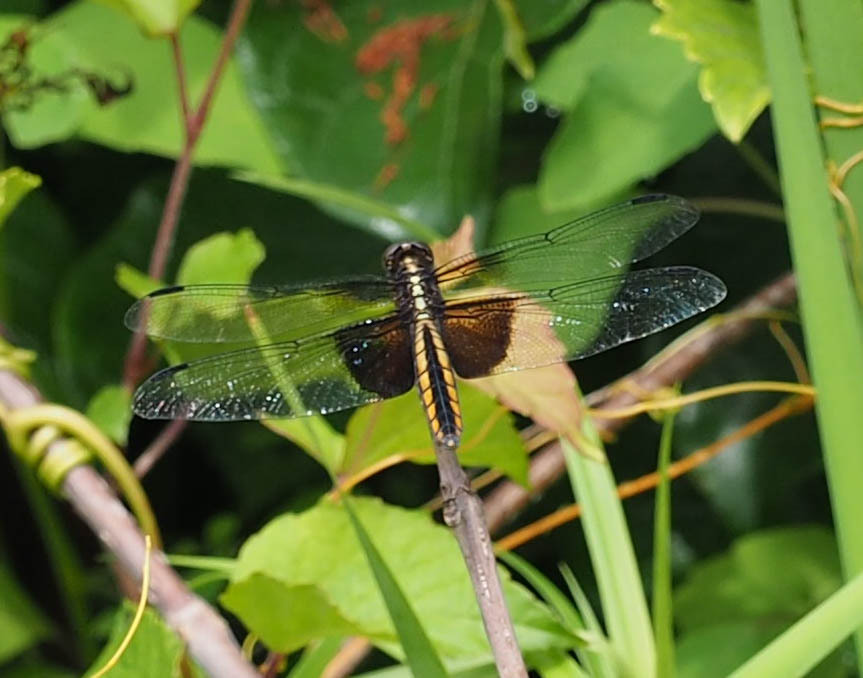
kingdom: Animalia
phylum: Arthropoda
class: Insecta
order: Odonata
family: Libellulidae
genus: Libellula
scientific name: Libellula luctuosa
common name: Widow skimmer
